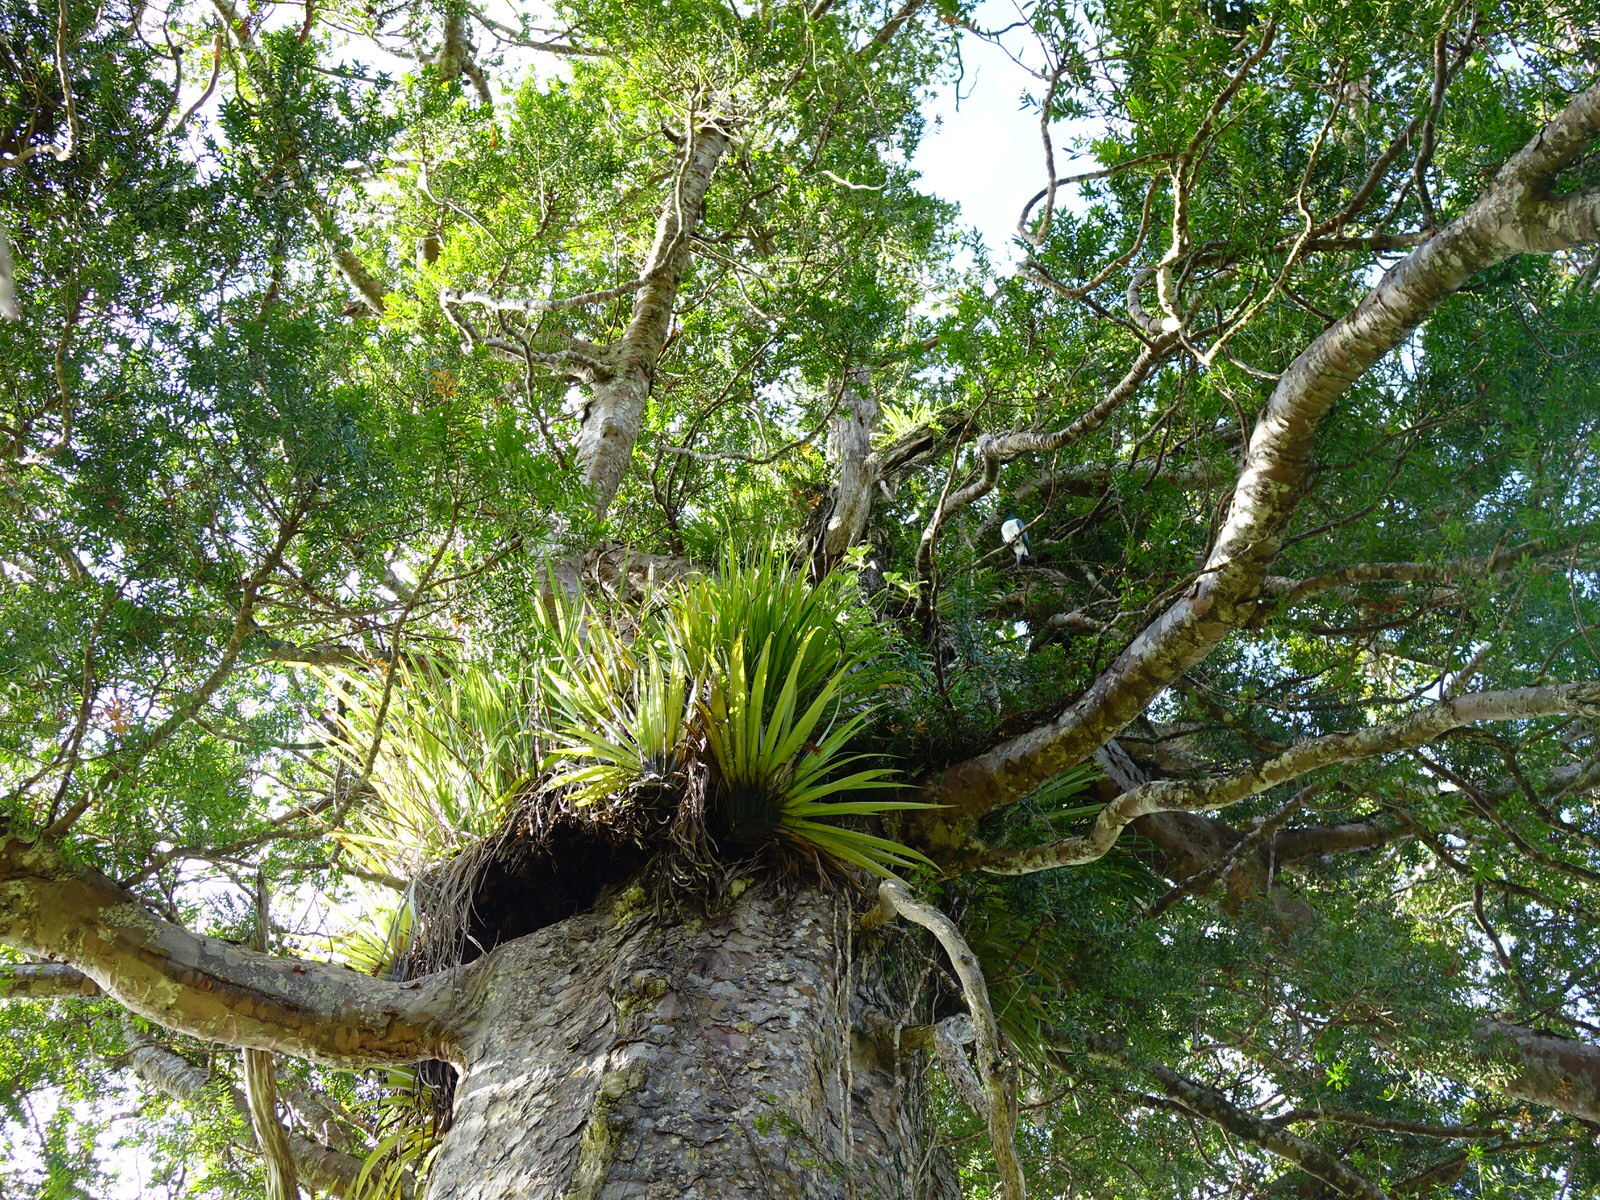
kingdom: Animalia
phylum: Chordata
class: Aves
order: Columbiformes
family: Columbidae
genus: Hemiphaga
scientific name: Hemiphaga novaeseelandiae
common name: New zealand pigeon
